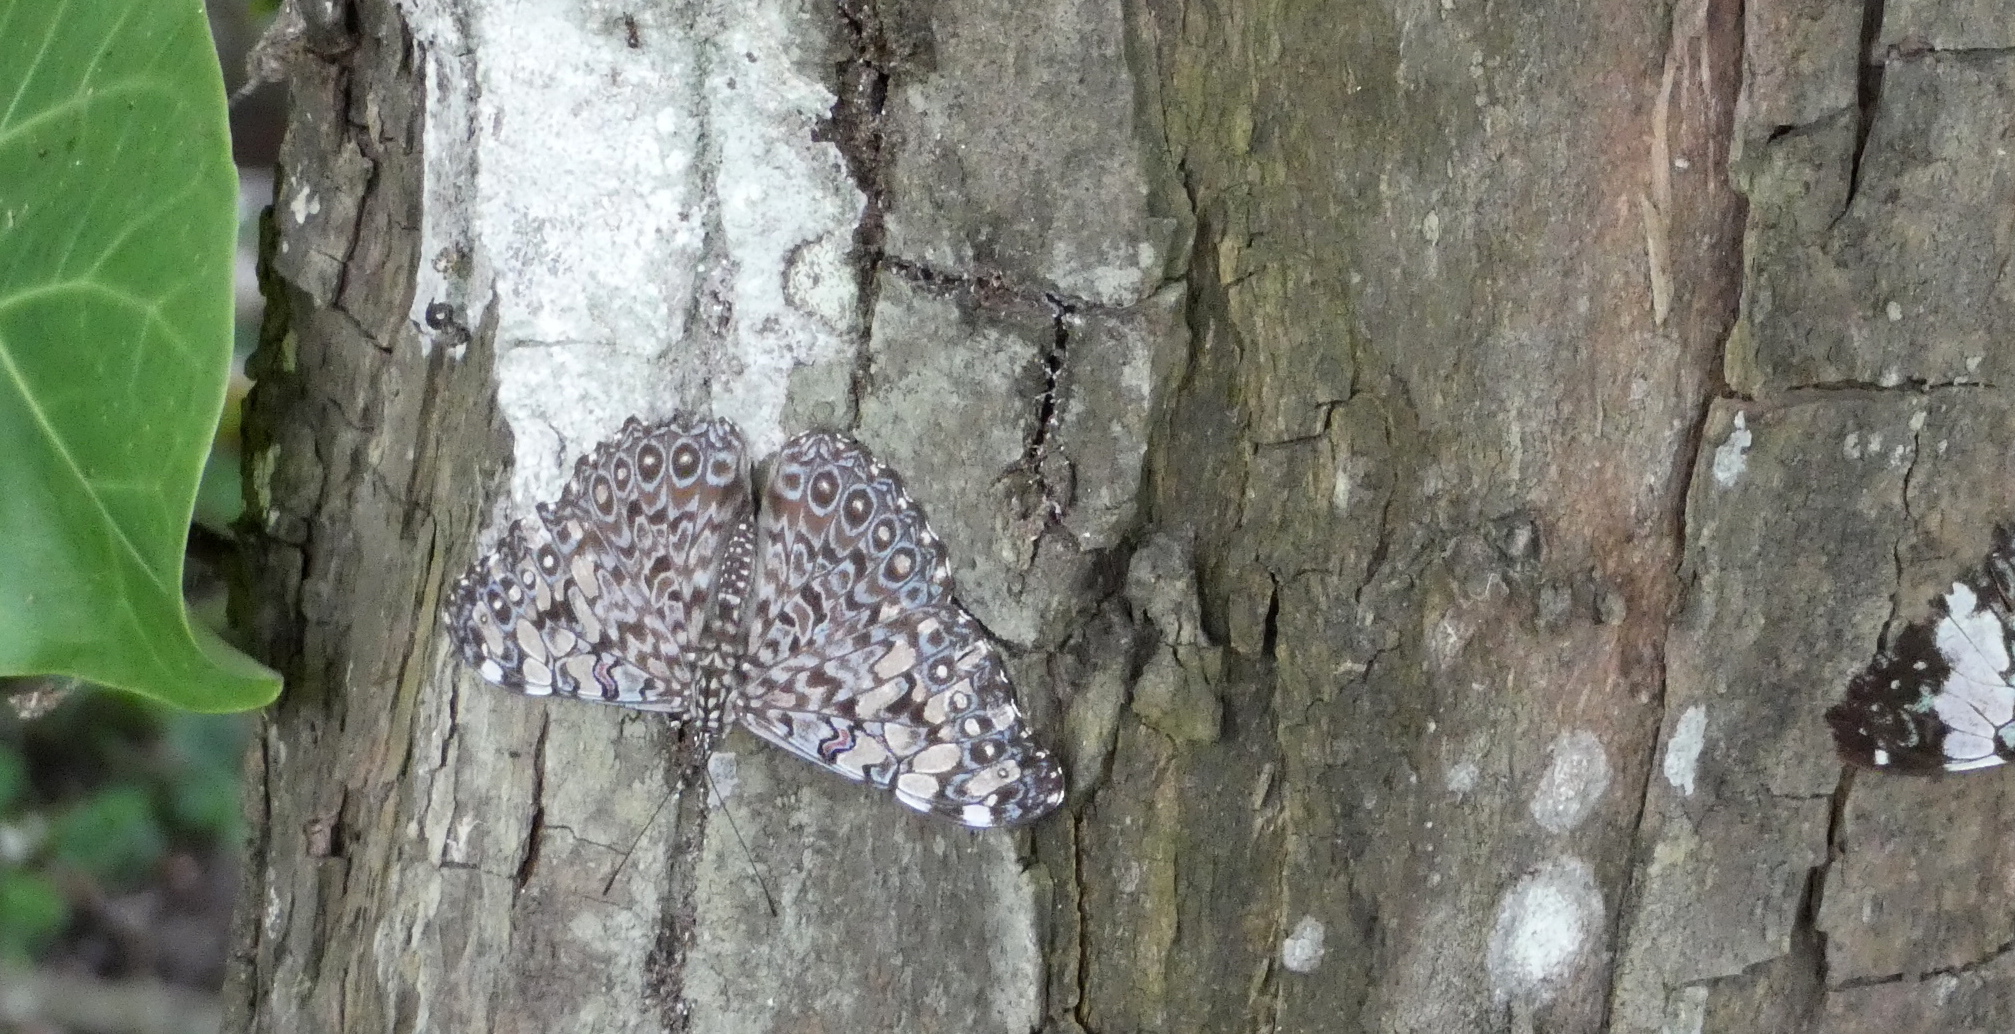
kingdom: Animalia
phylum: Arthropoda
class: Insecta
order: Lepidoptera
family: Nymphalidae
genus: Hamadryas
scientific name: Hamadryas feronia
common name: Variable cracker
